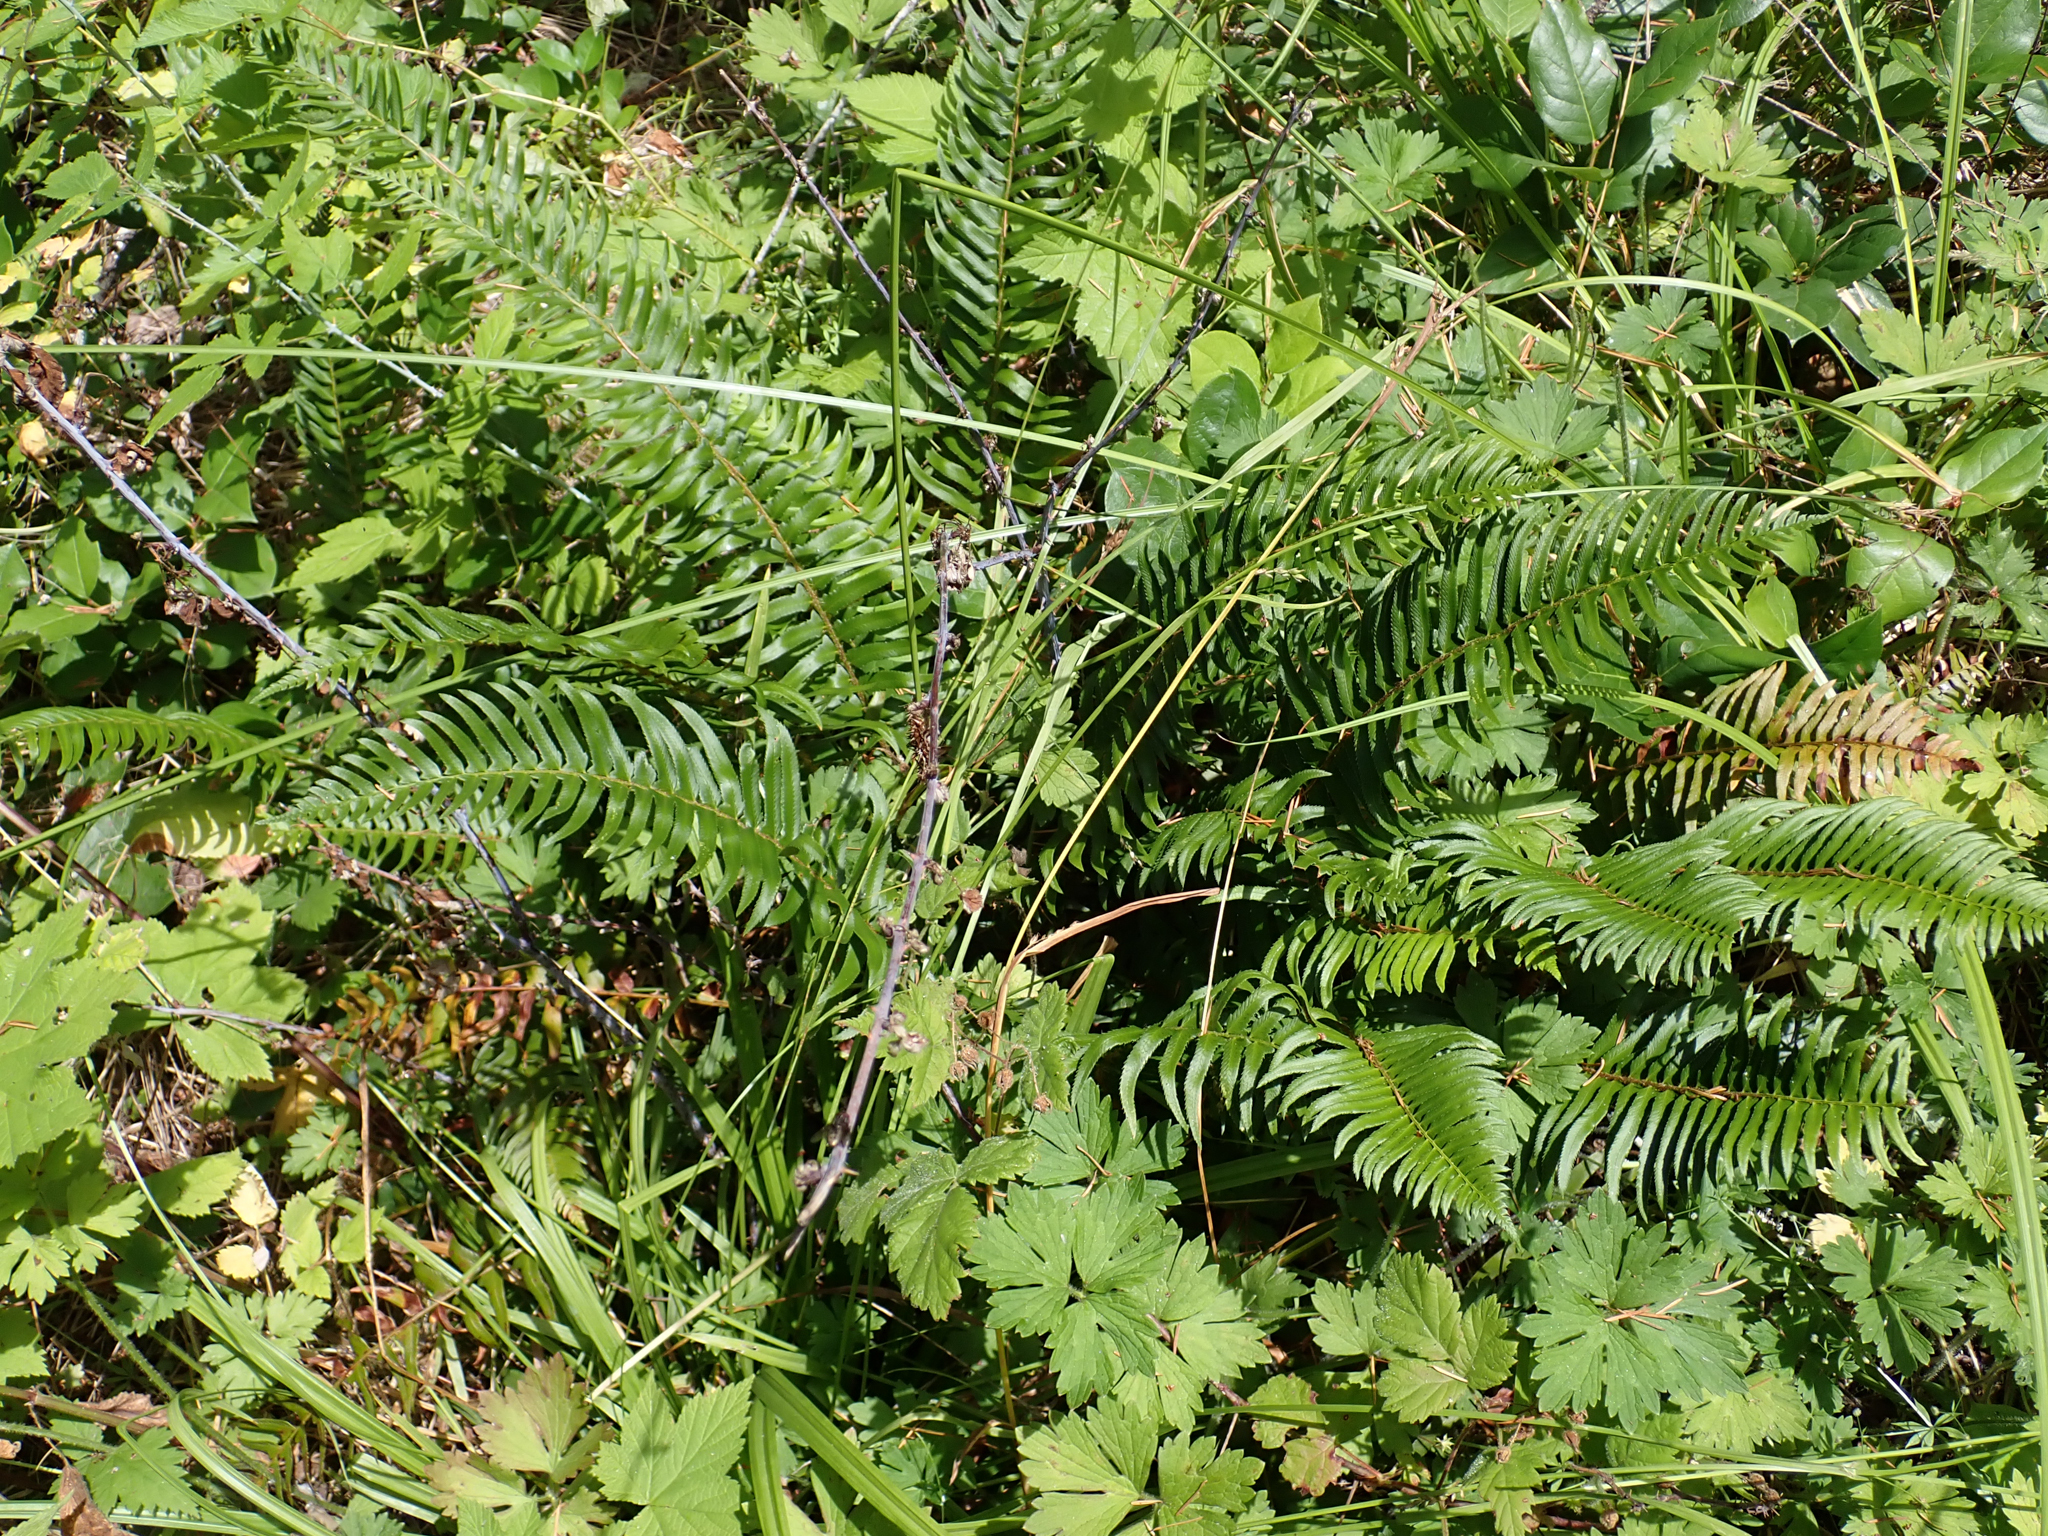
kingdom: Plantae
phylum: Tracheophyta
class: Polypodiopsida
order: Polypodiales
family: Dryopteridaceae
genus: Polystichum
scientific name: Polystichum munitum
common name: Western sword-fern
